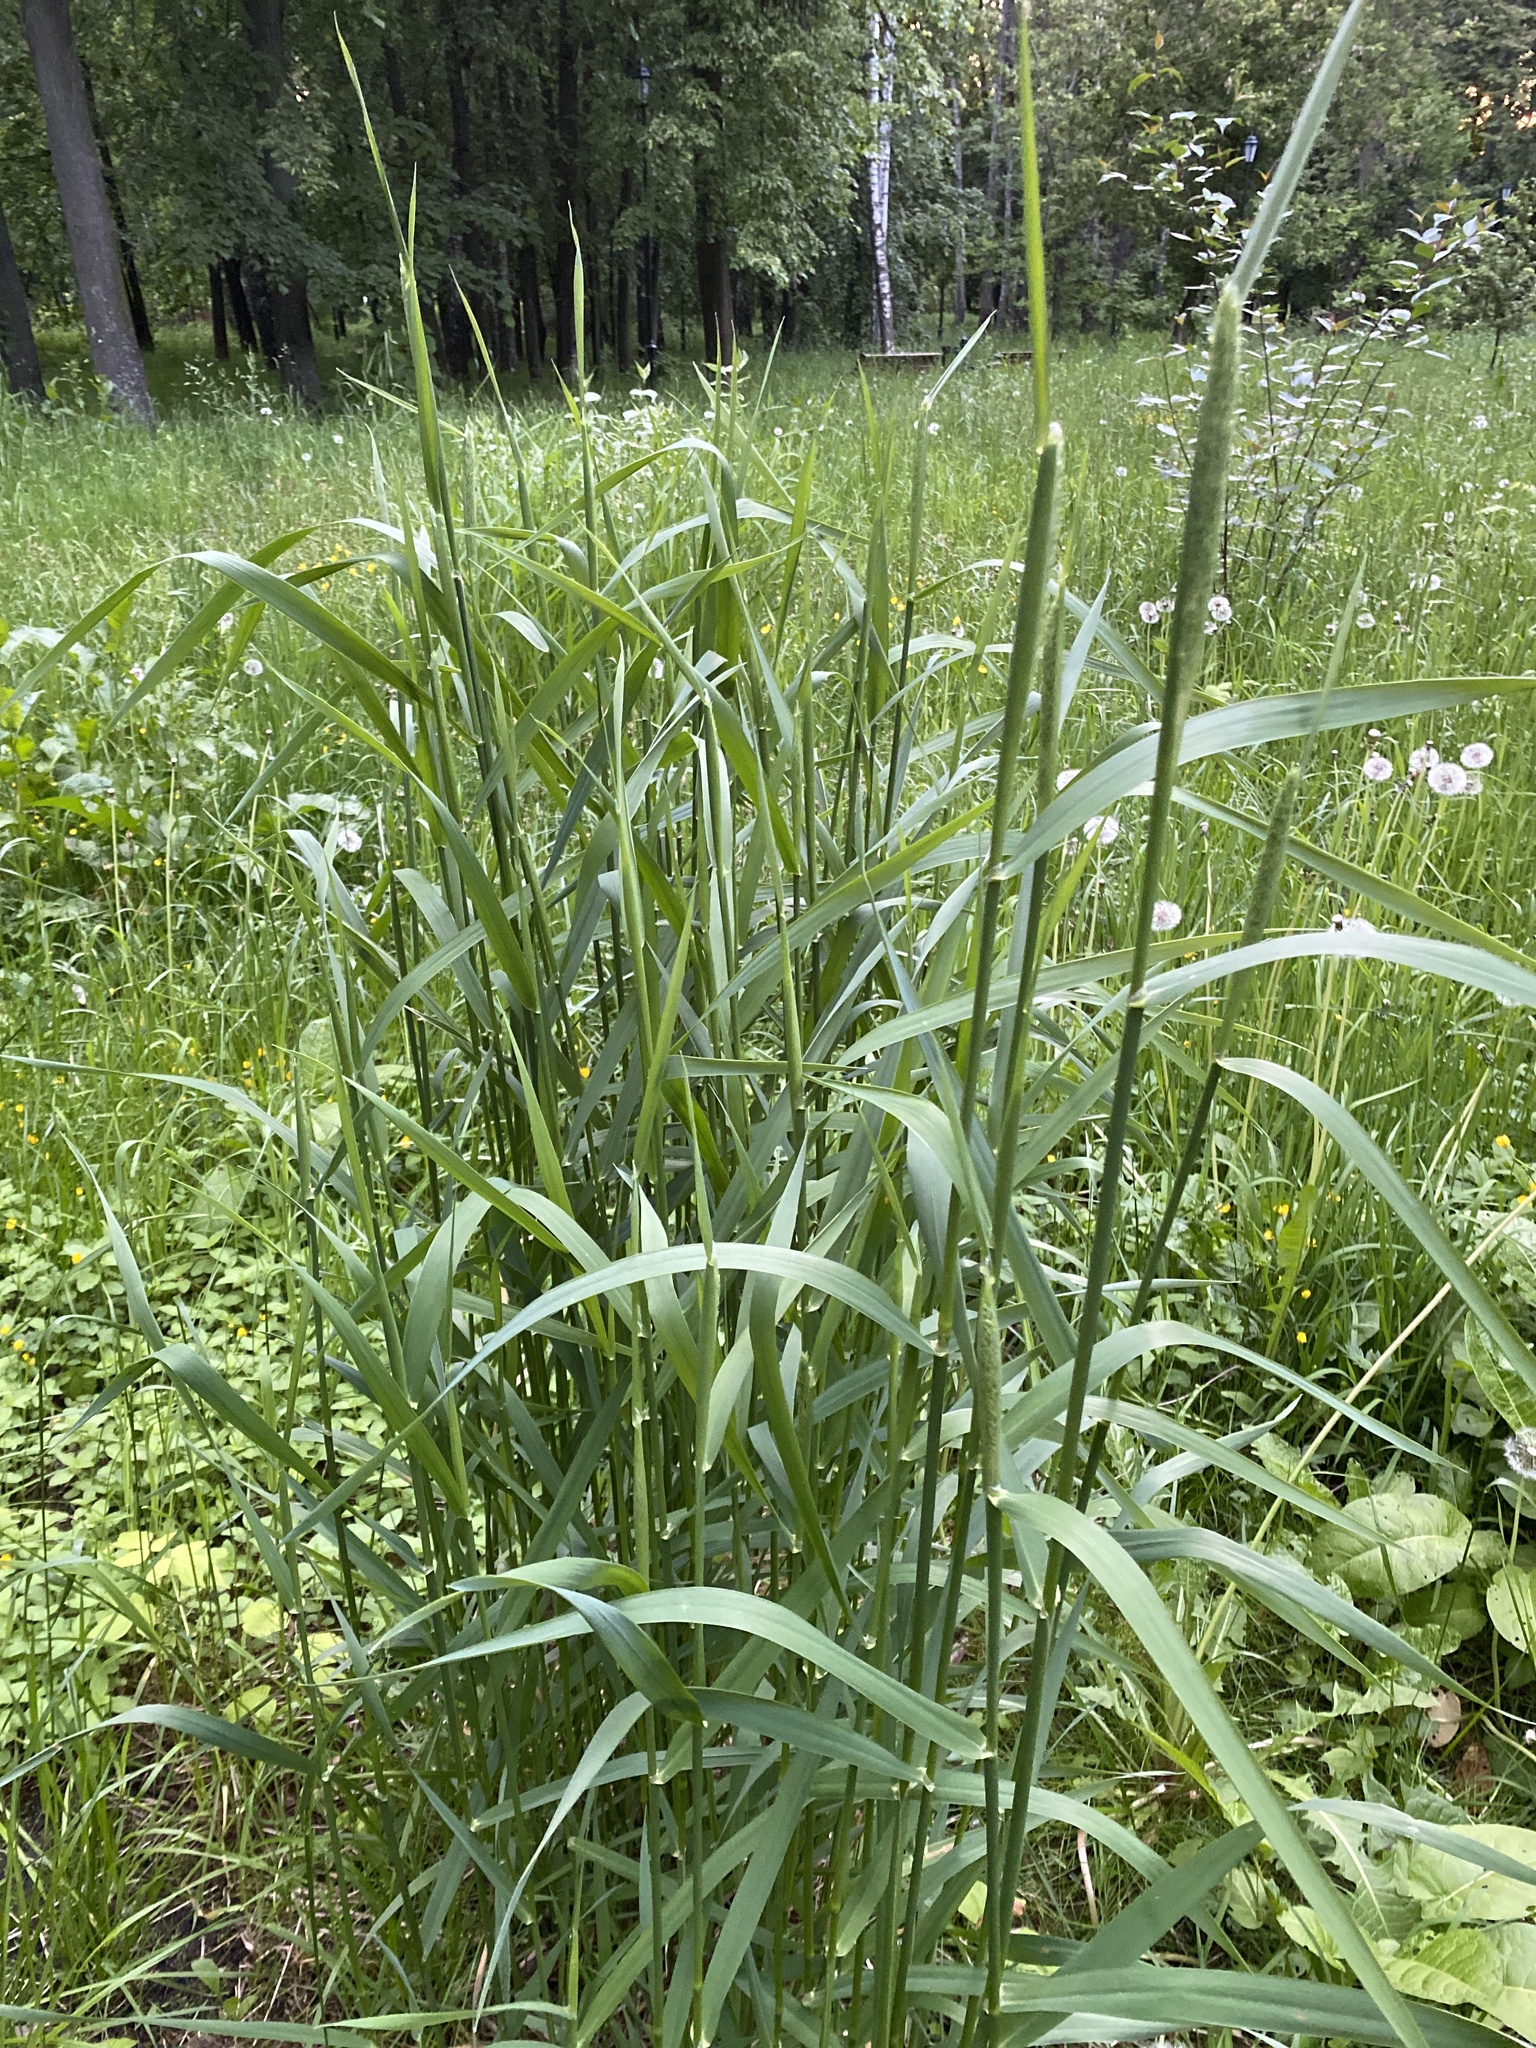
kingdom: Plantae
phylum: Tracheophyta
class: Liliopsida
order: Poales
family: Poaceae
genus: Phleum
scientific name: Phleum pratense
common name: Timothy grass
